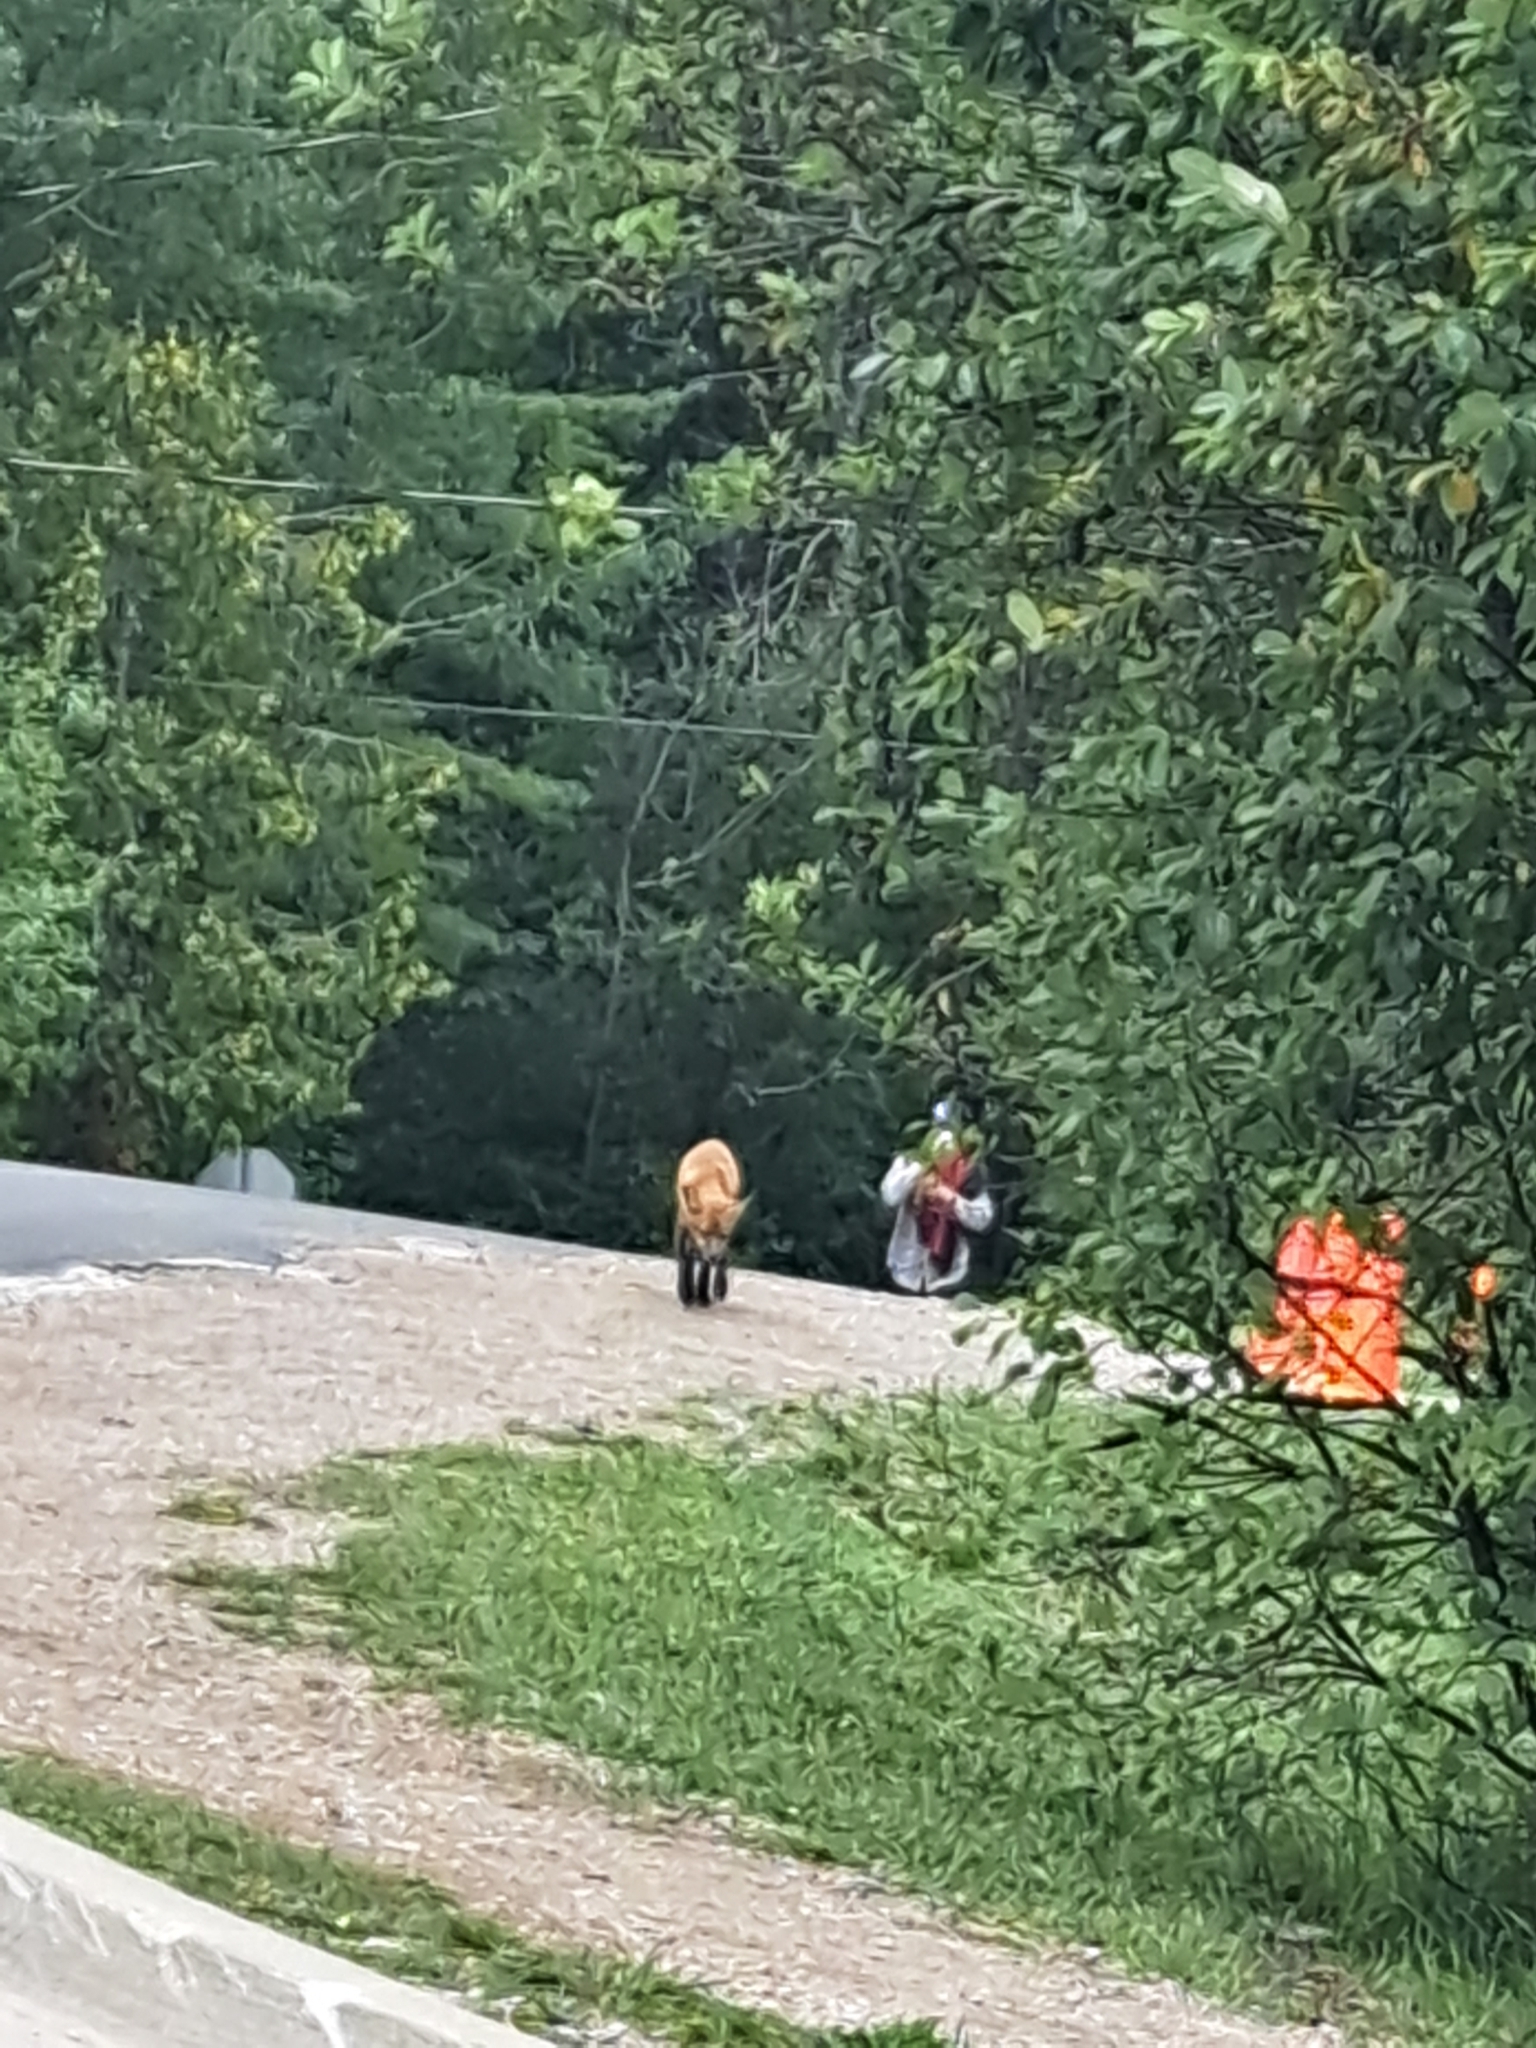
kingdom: Animalia
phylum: Chordata
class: Mammalia
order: Carnivora
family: Canidae
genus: Vulpes
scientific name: Vulpes vulpes
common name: Red fox
